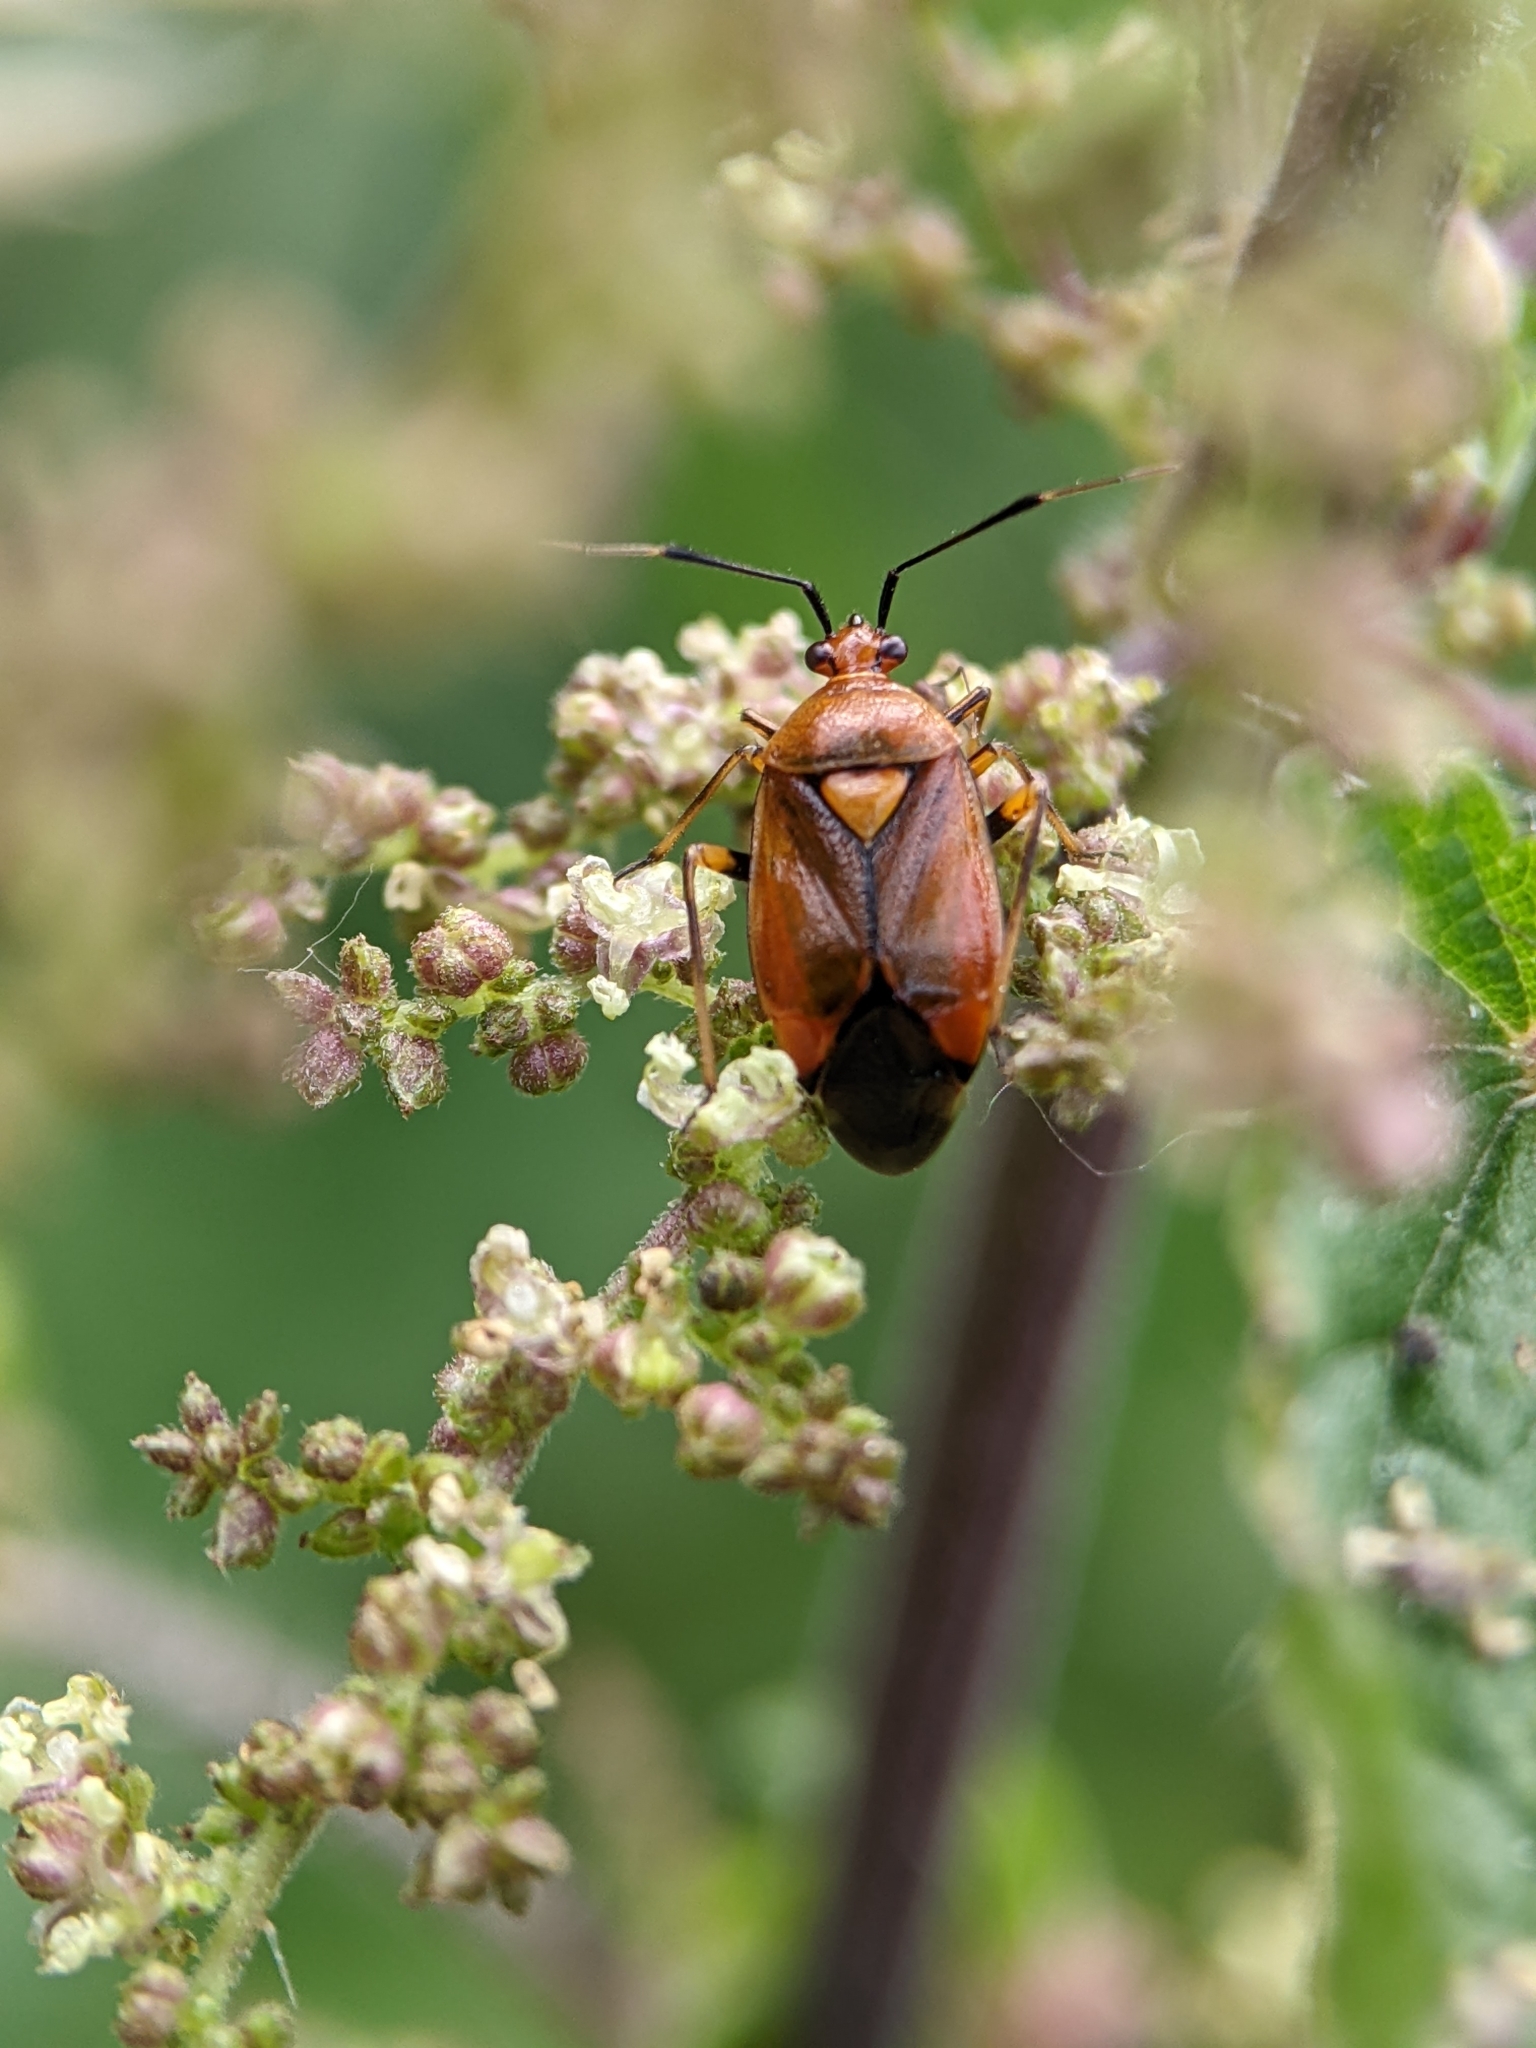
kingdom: Animalia
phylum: Arthropoda
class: Insecta
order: Hemiptera
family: Miridae
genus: Deraeocoris
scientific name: Deraeocoris ruber
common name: Plant bug
